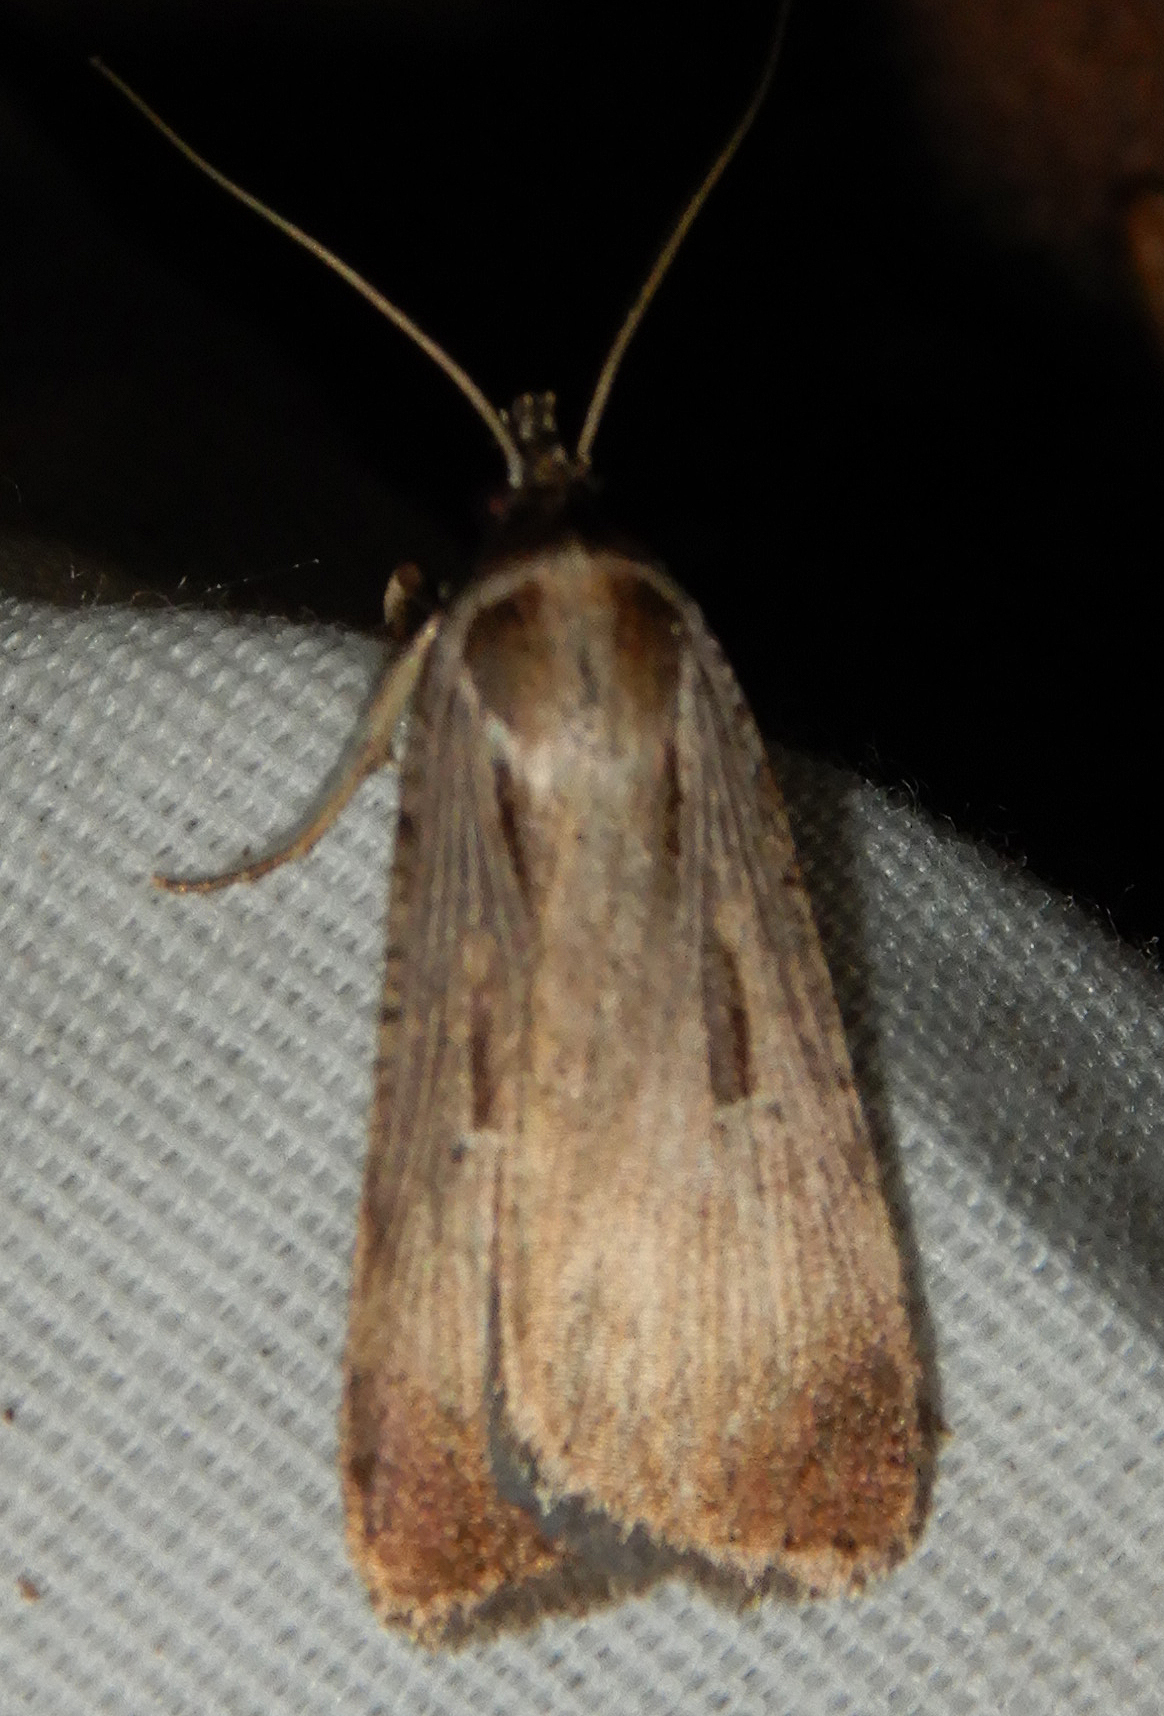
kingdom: Animalia
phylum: Arthropoda
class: Insecta
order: Lepidoptera
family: Noctuidae
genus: Tathorhynchus
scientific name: Tathorhynchus exsiccata
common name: Levant blackneck moth
